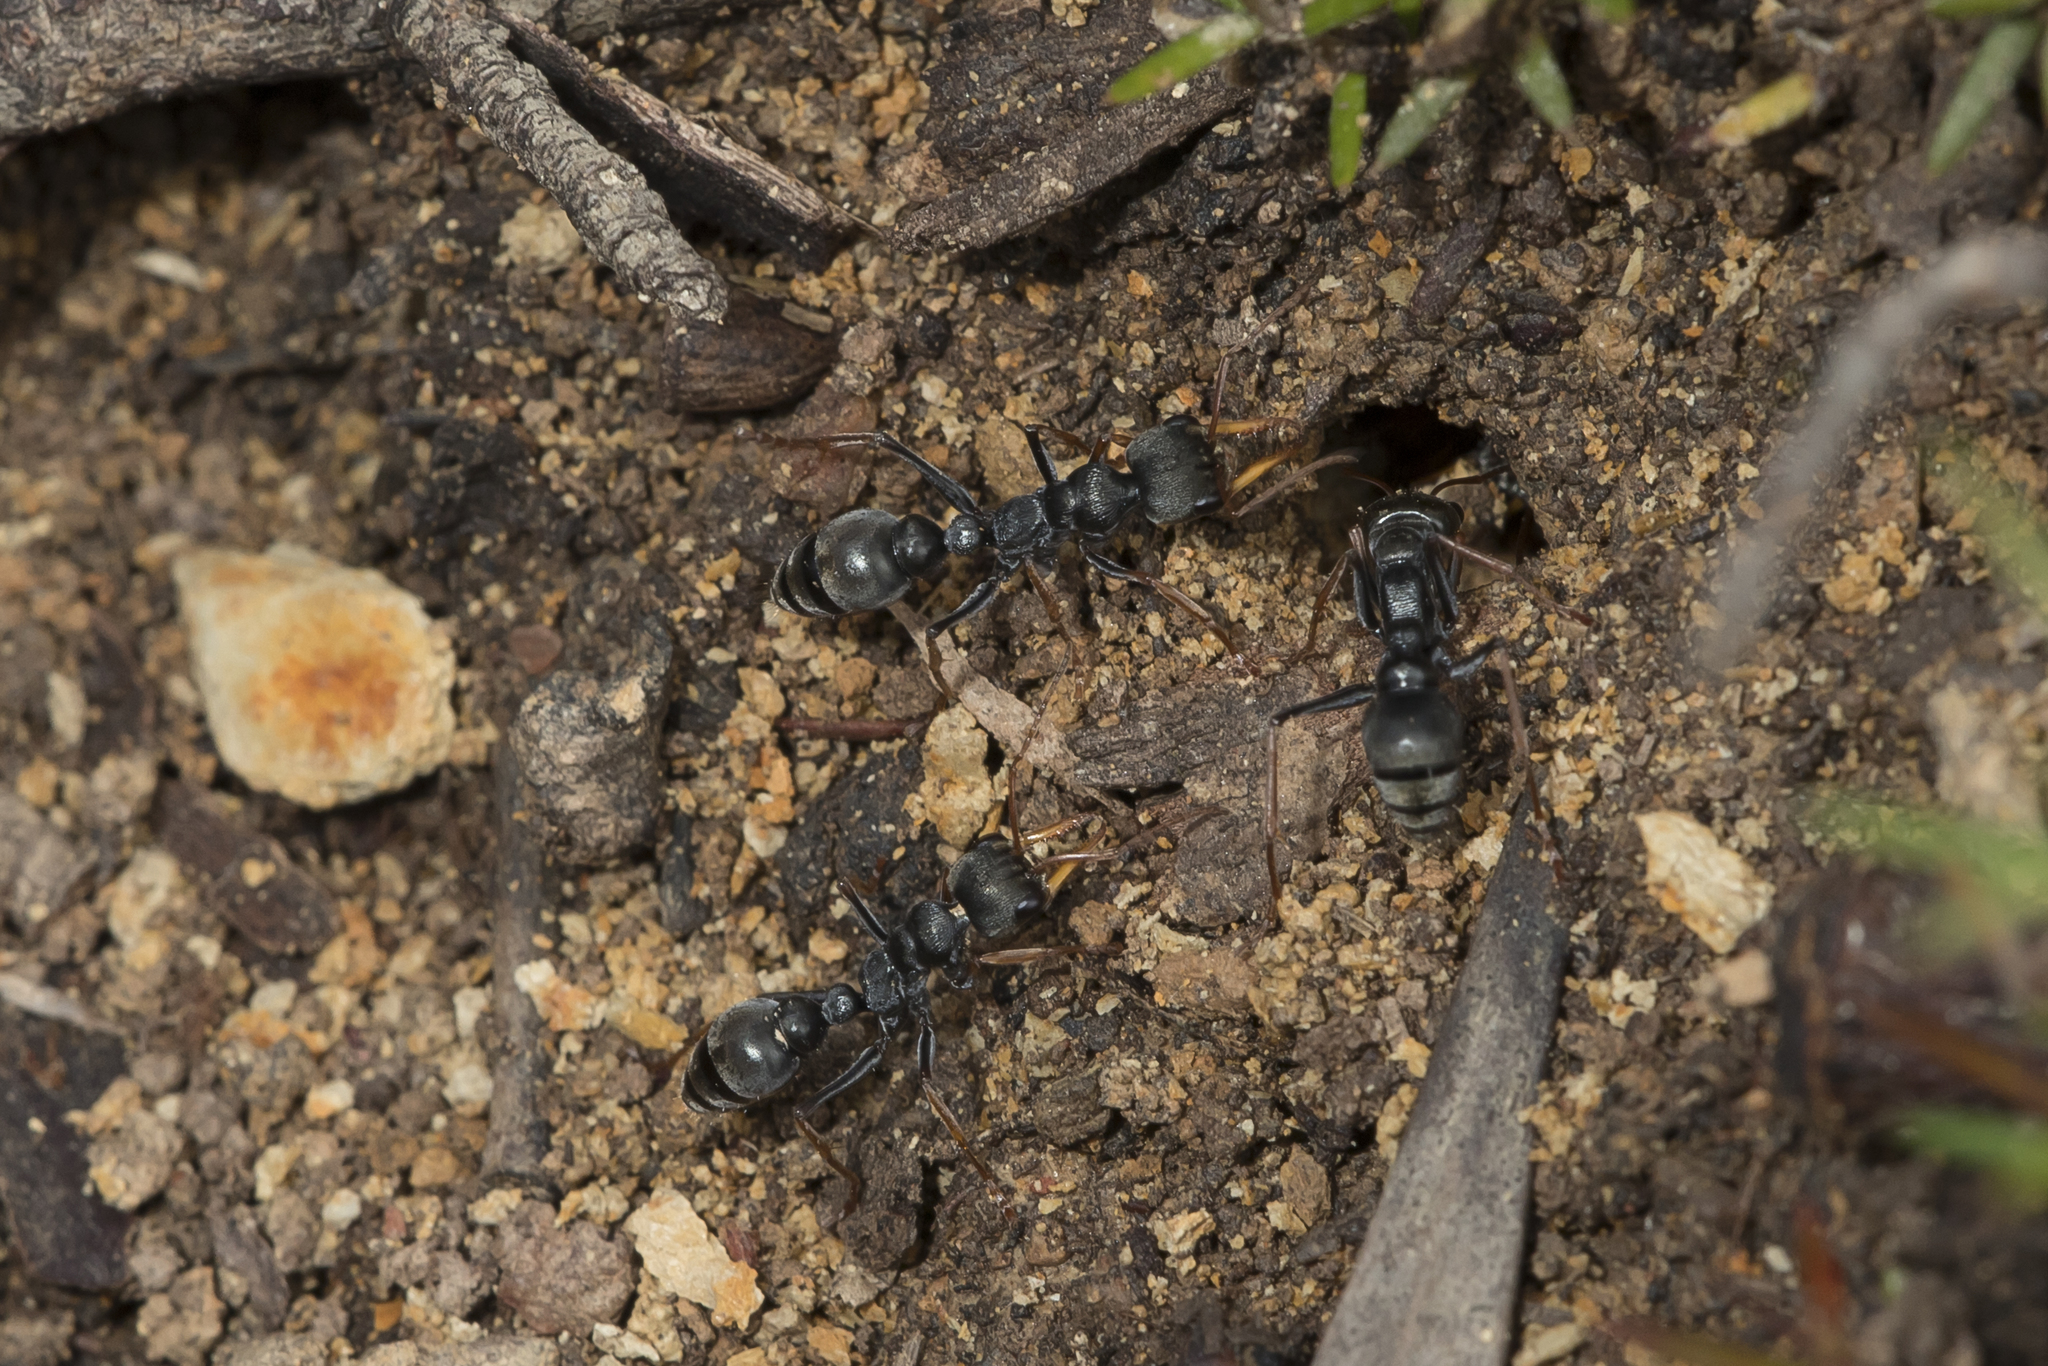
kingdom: Animalia
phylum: Arthropoda
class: Insecta
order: Hymenoptera
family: Formicidae
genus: Myrmecia
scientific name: Myrmecia pilosula
